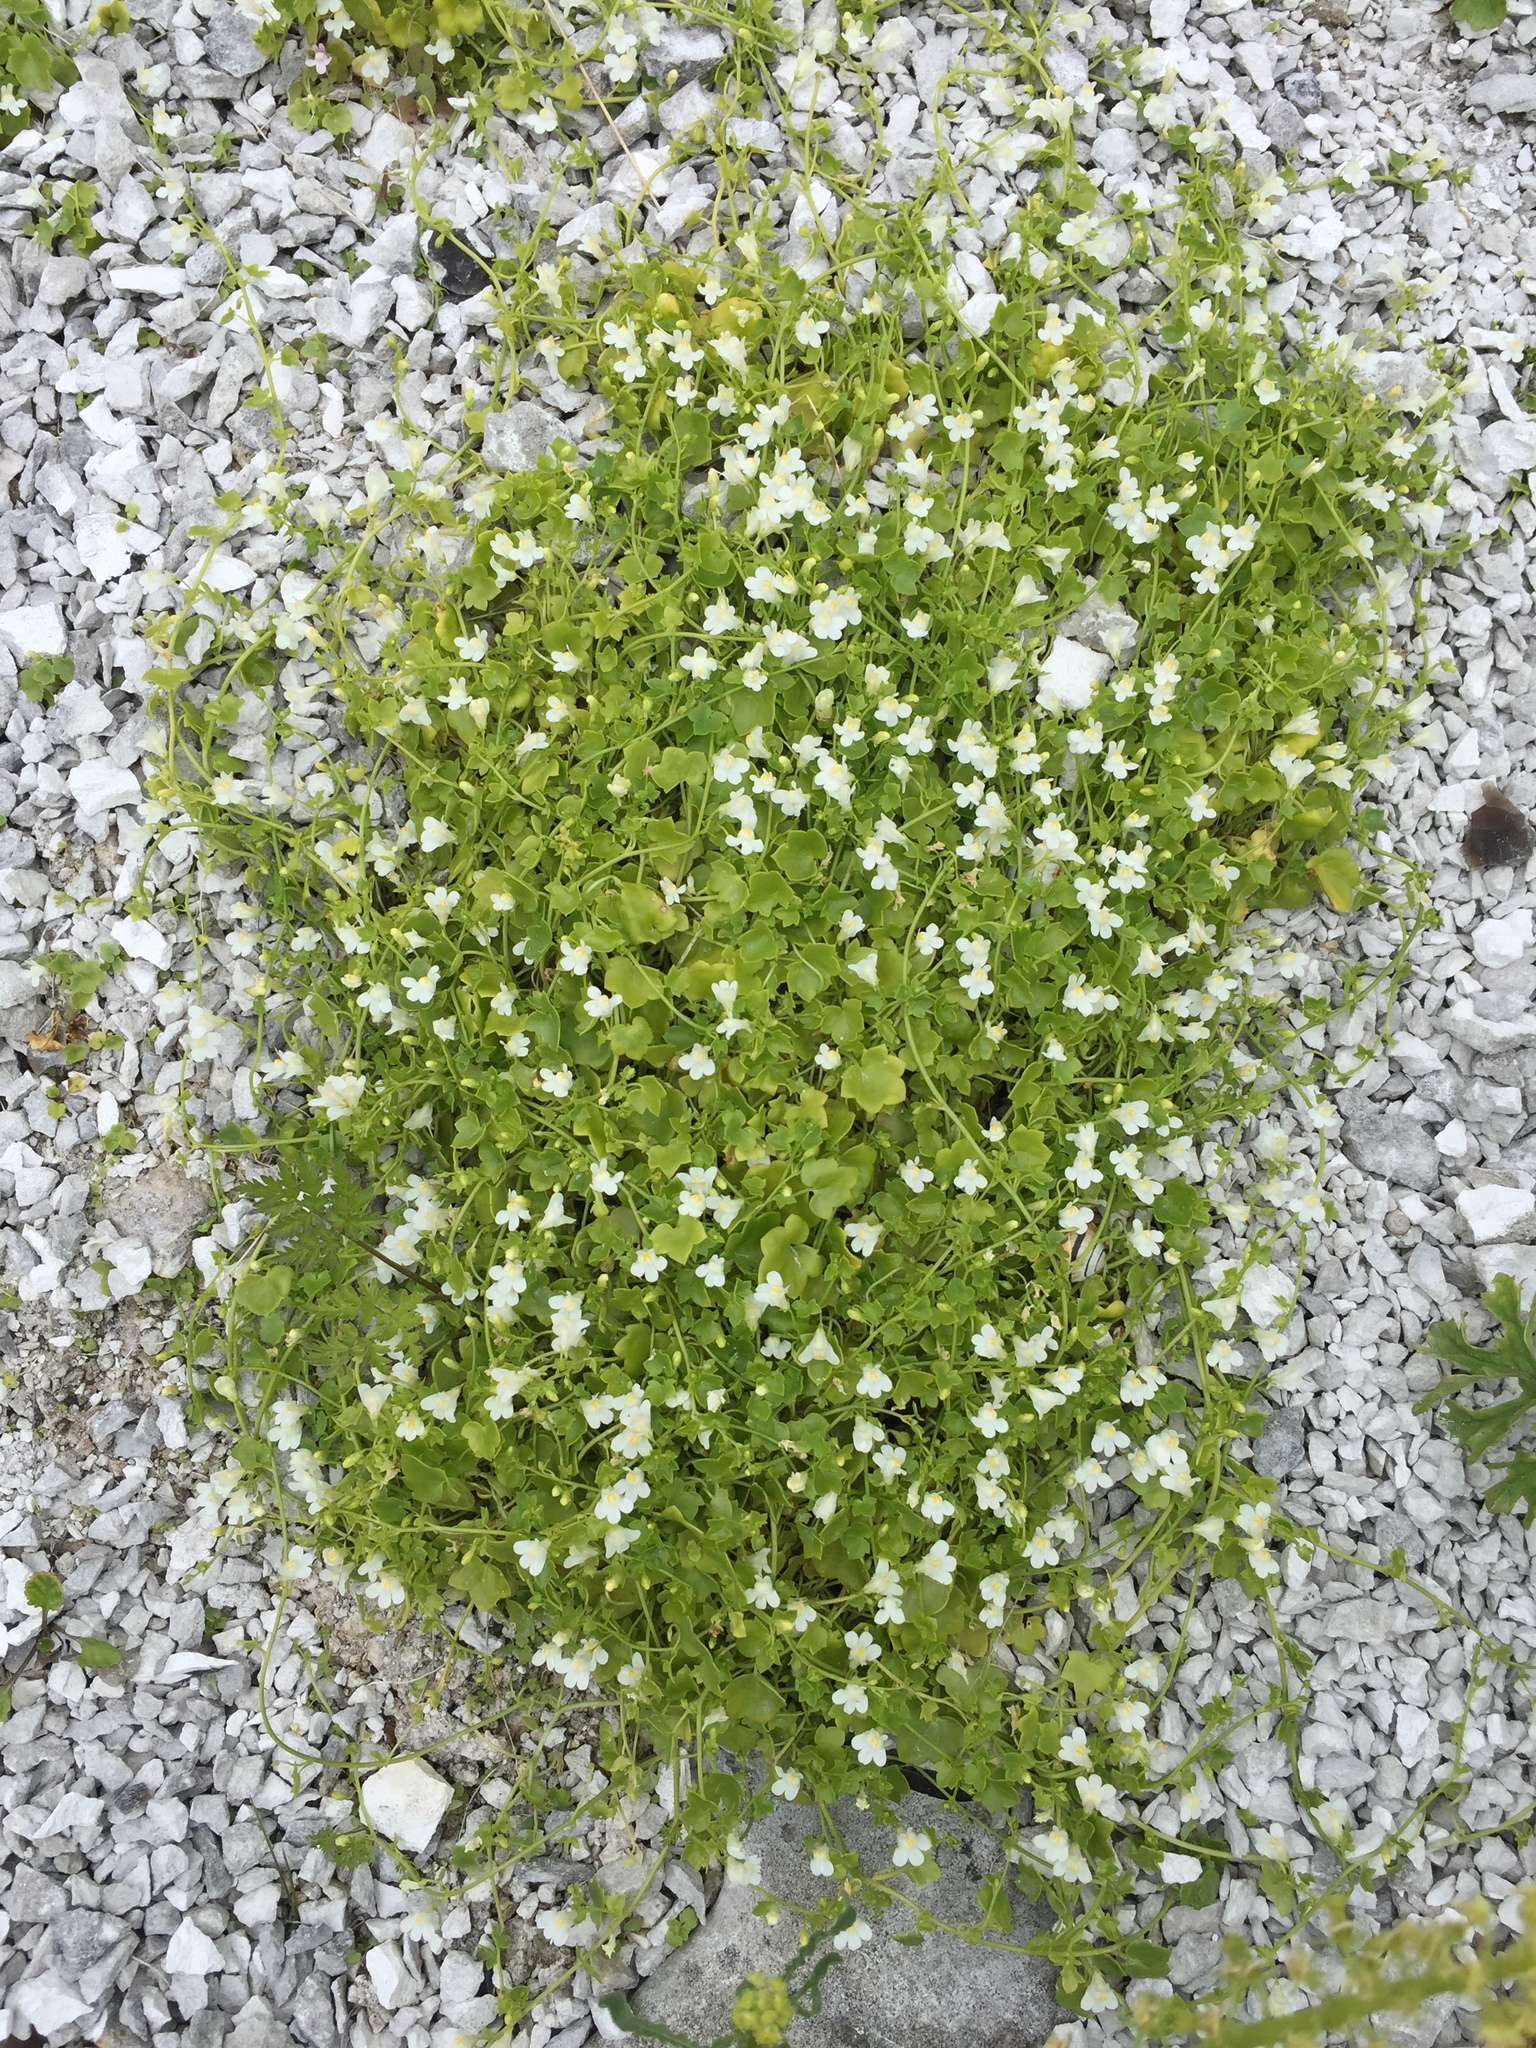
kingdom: Plantae
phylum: Tracheophyta
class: Magnoliopsida
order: Lamiales
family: Plantaginaceae
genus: Cymbalaria
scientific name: Cymbalaria muralis
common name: Ivy-leaved toadflax
